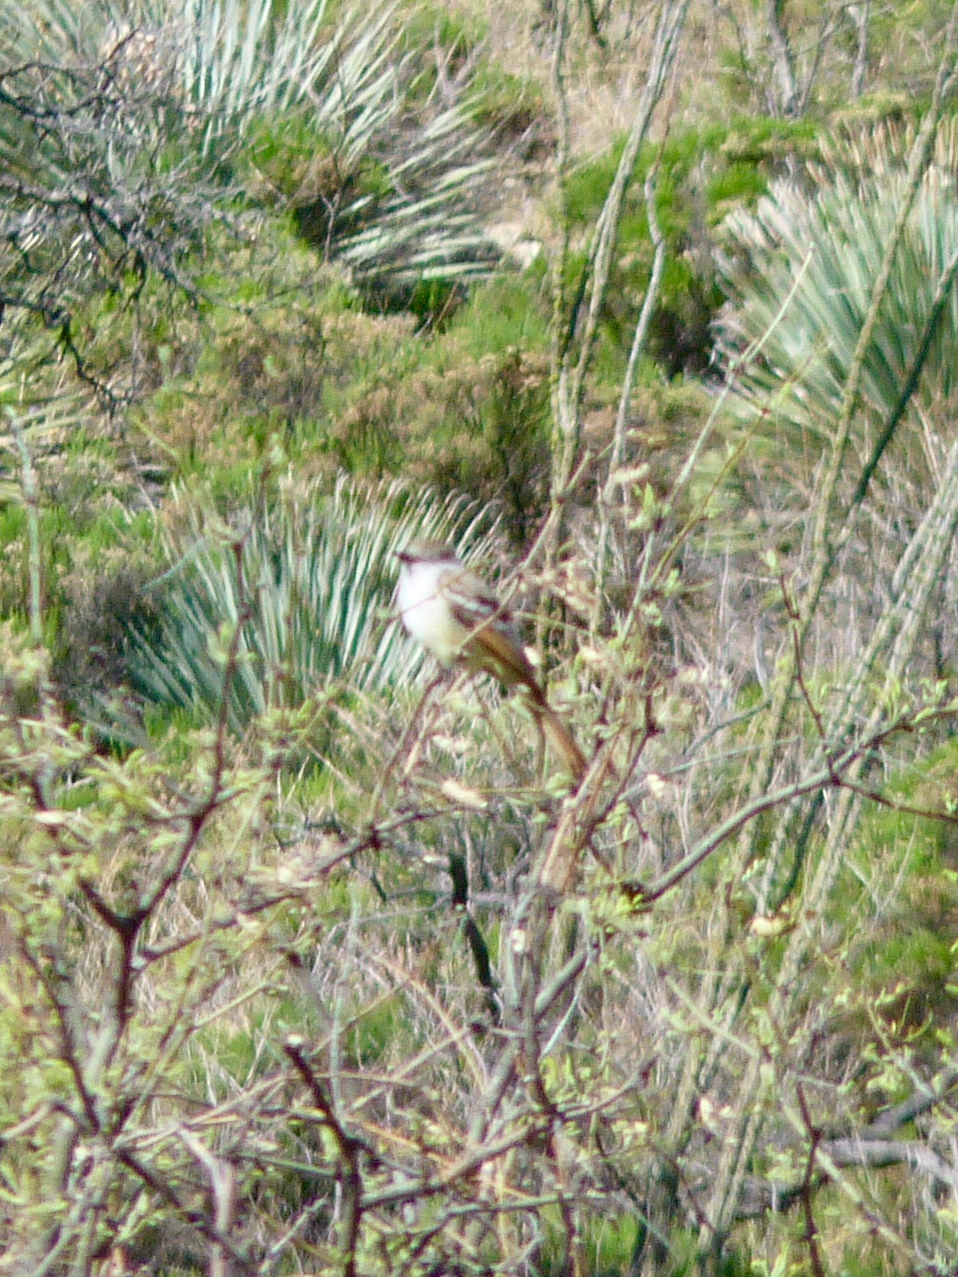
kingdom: Animalia
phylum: Chordata
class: Aves
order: Passeriformes
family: Tyrannidae
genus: Myiarchus
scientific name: Myiarchus cinerascens
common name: Ash-throated flycatcher
